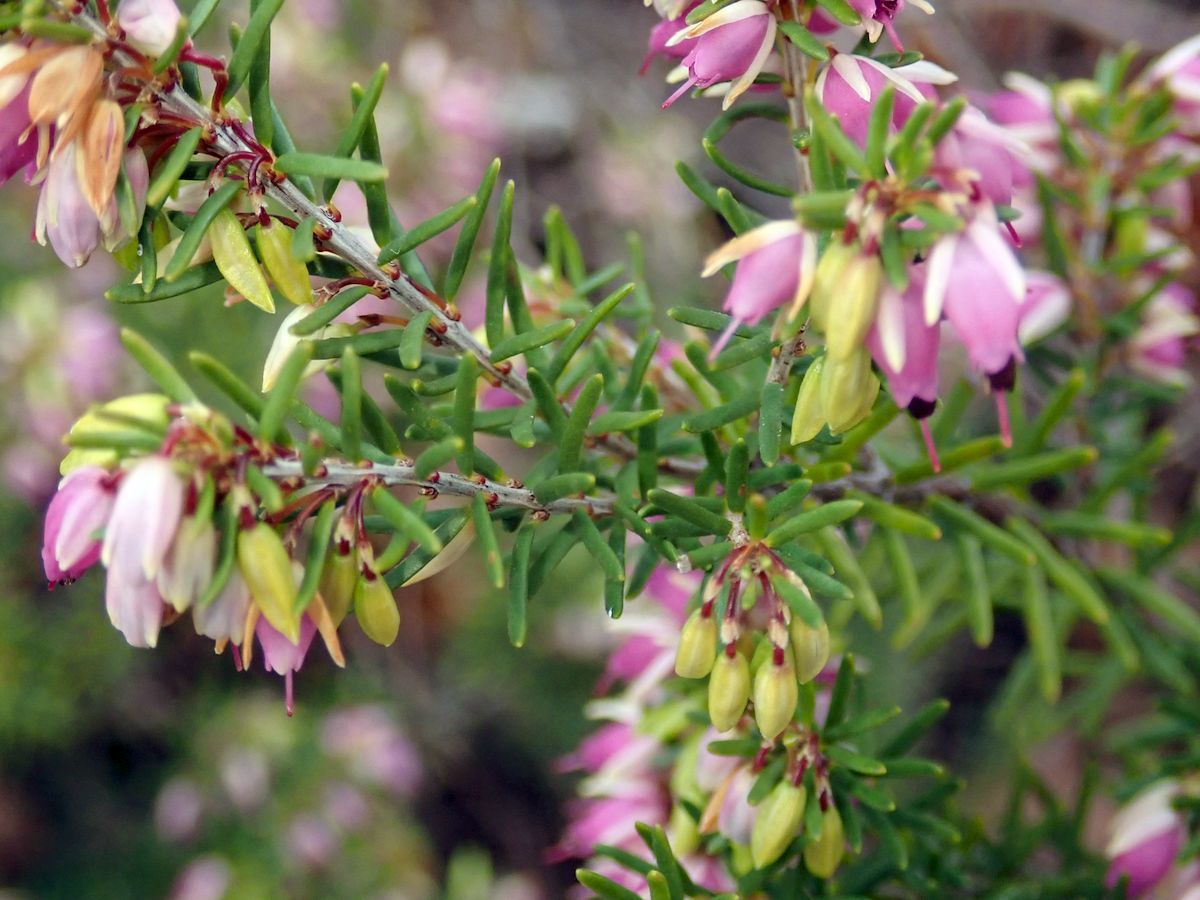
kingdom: Plantae
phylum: Tracheophyta
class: Magnoliopsida
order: Ericales
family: Ericaceae
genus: Erica
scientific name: Erica carnea
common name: Winter heath
